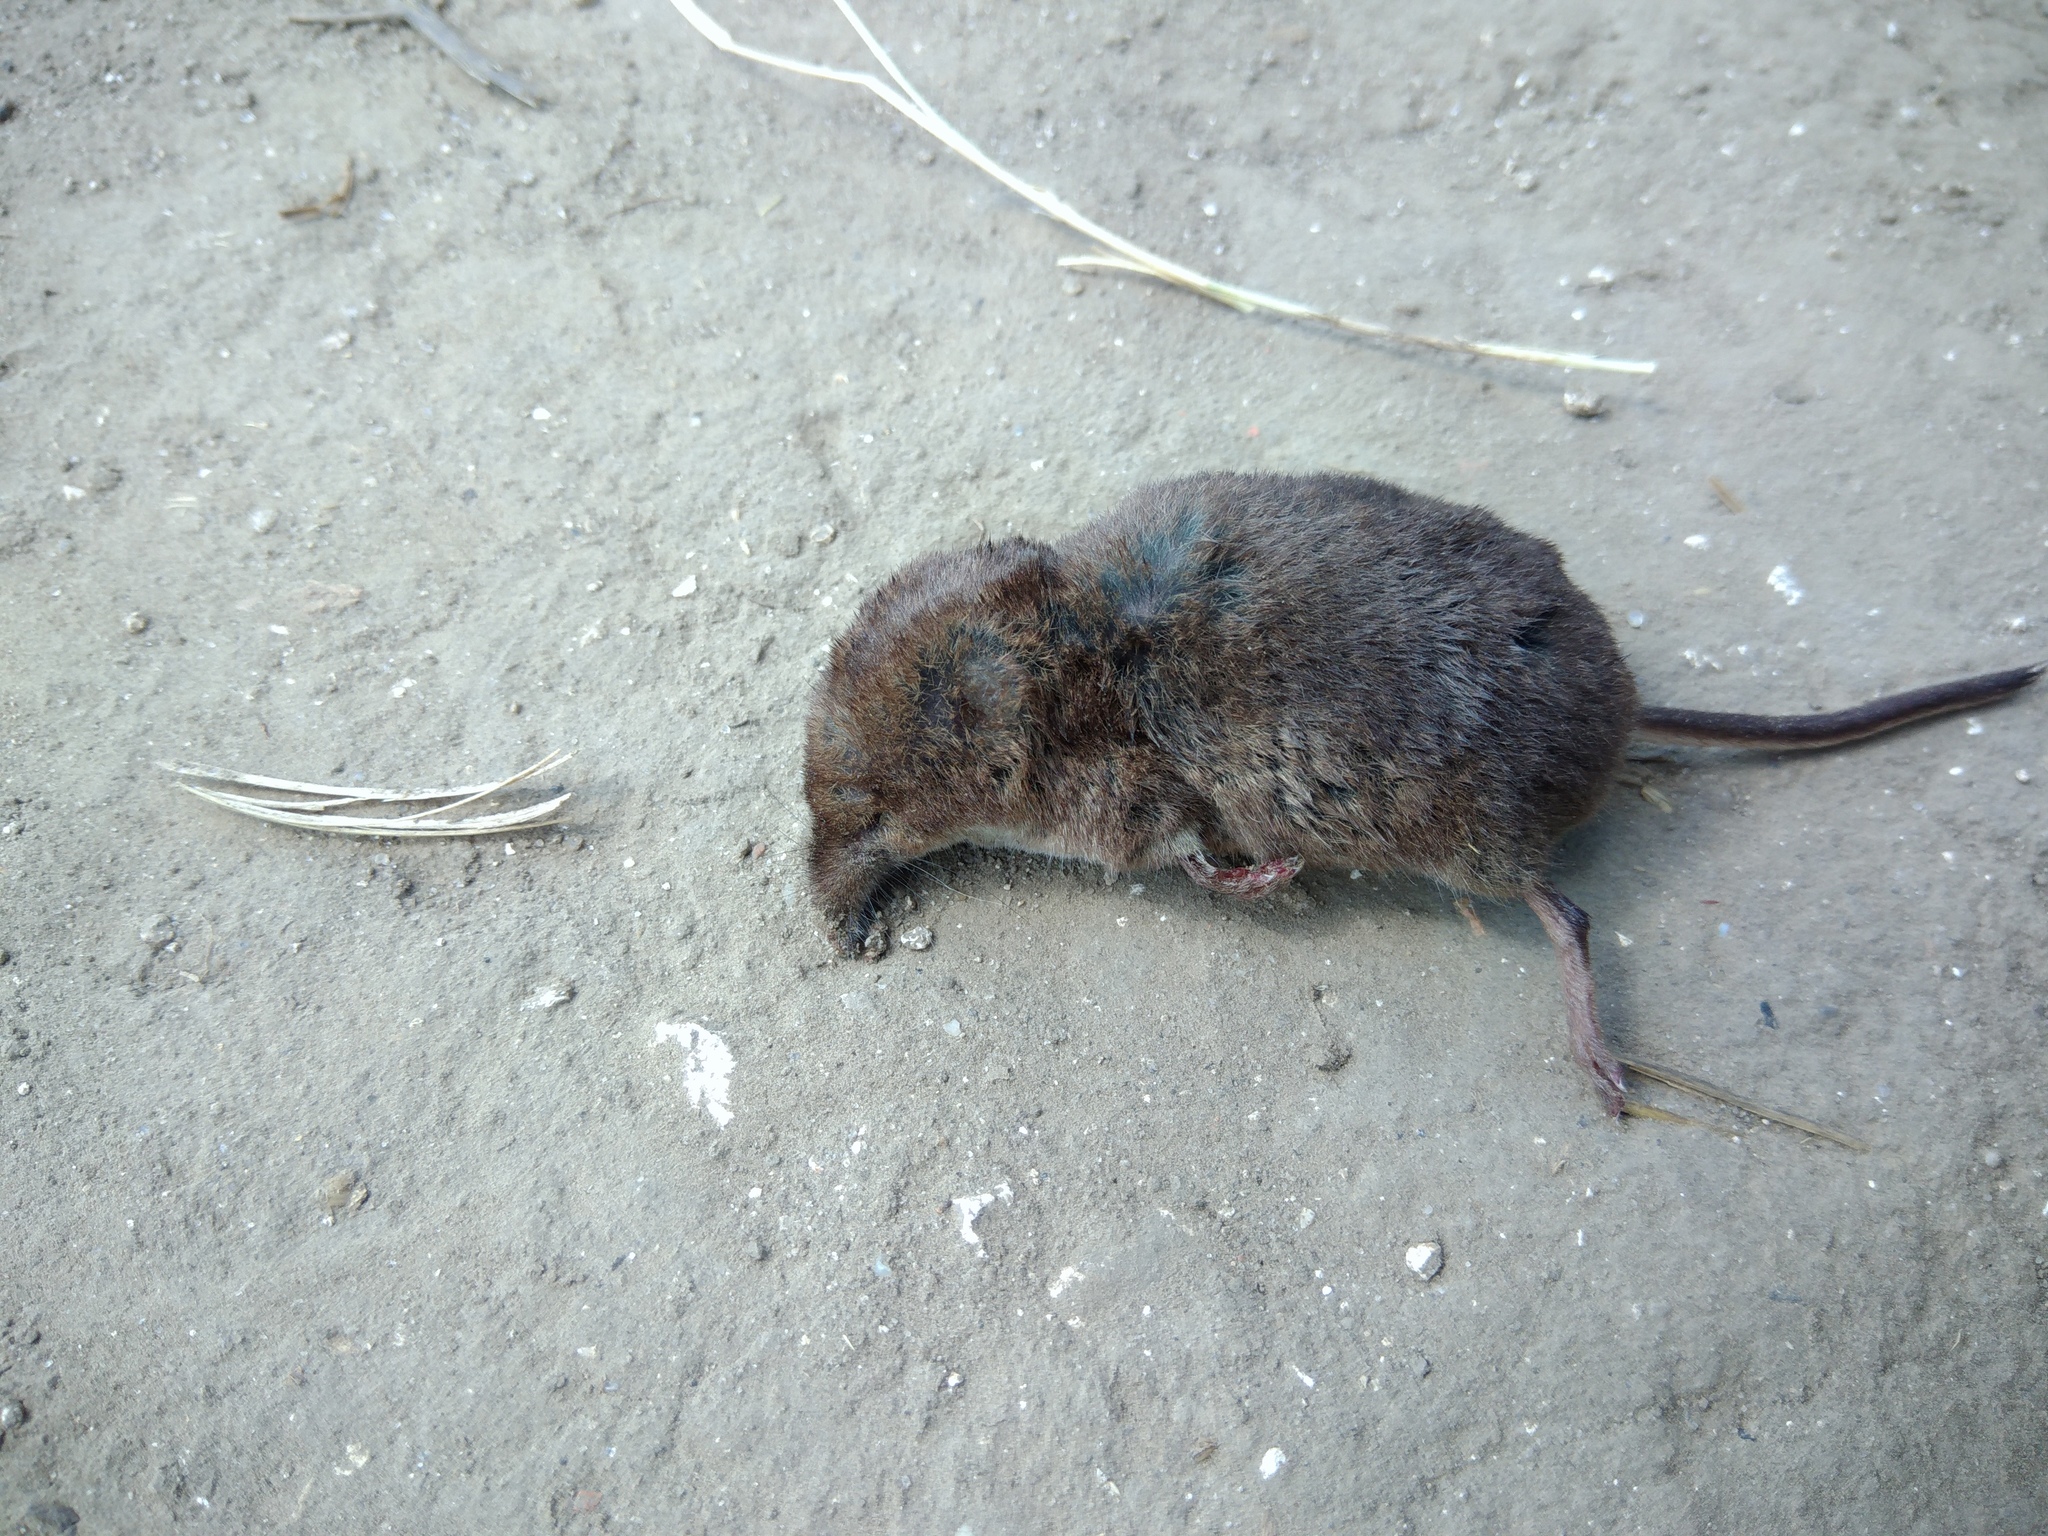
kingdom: Animalia
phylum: Chordata
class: Mammalia
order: Soricomorpha
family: Soricidae
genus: Sorex
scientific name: Sorex araneus
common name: Common shrew
